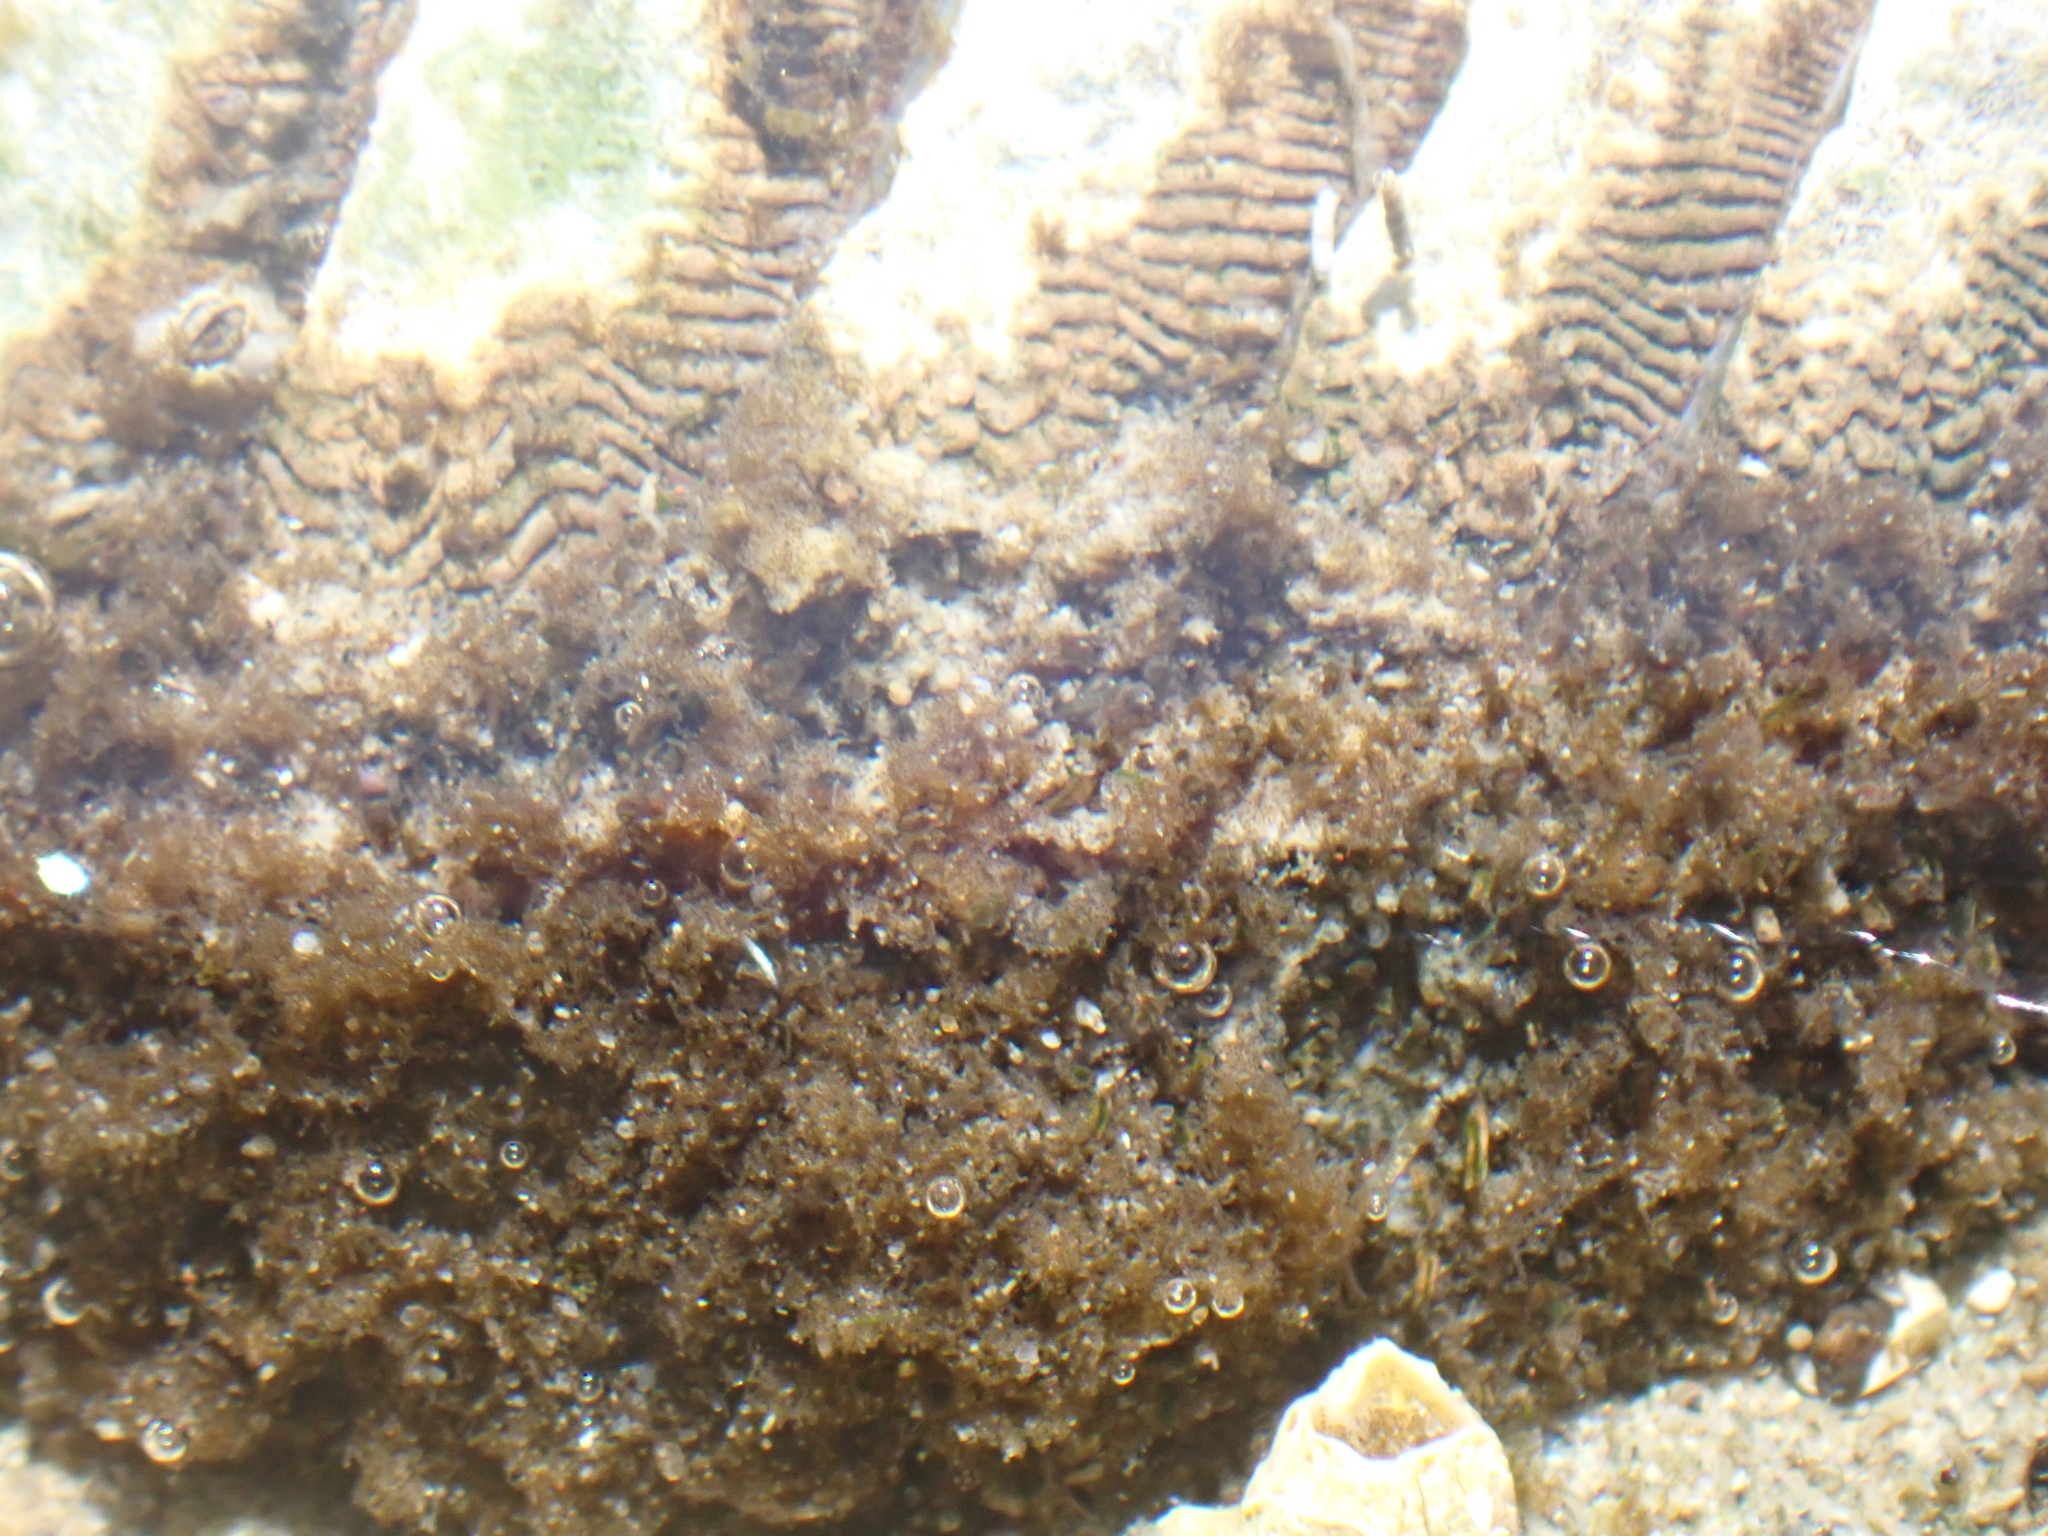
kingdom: Animalia
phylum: Mollusca
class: Polyplacophora
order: Chitonida
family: Mopaliidae
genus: Mopalia
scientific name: Mopalia muscosa
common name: Mossy chiton
